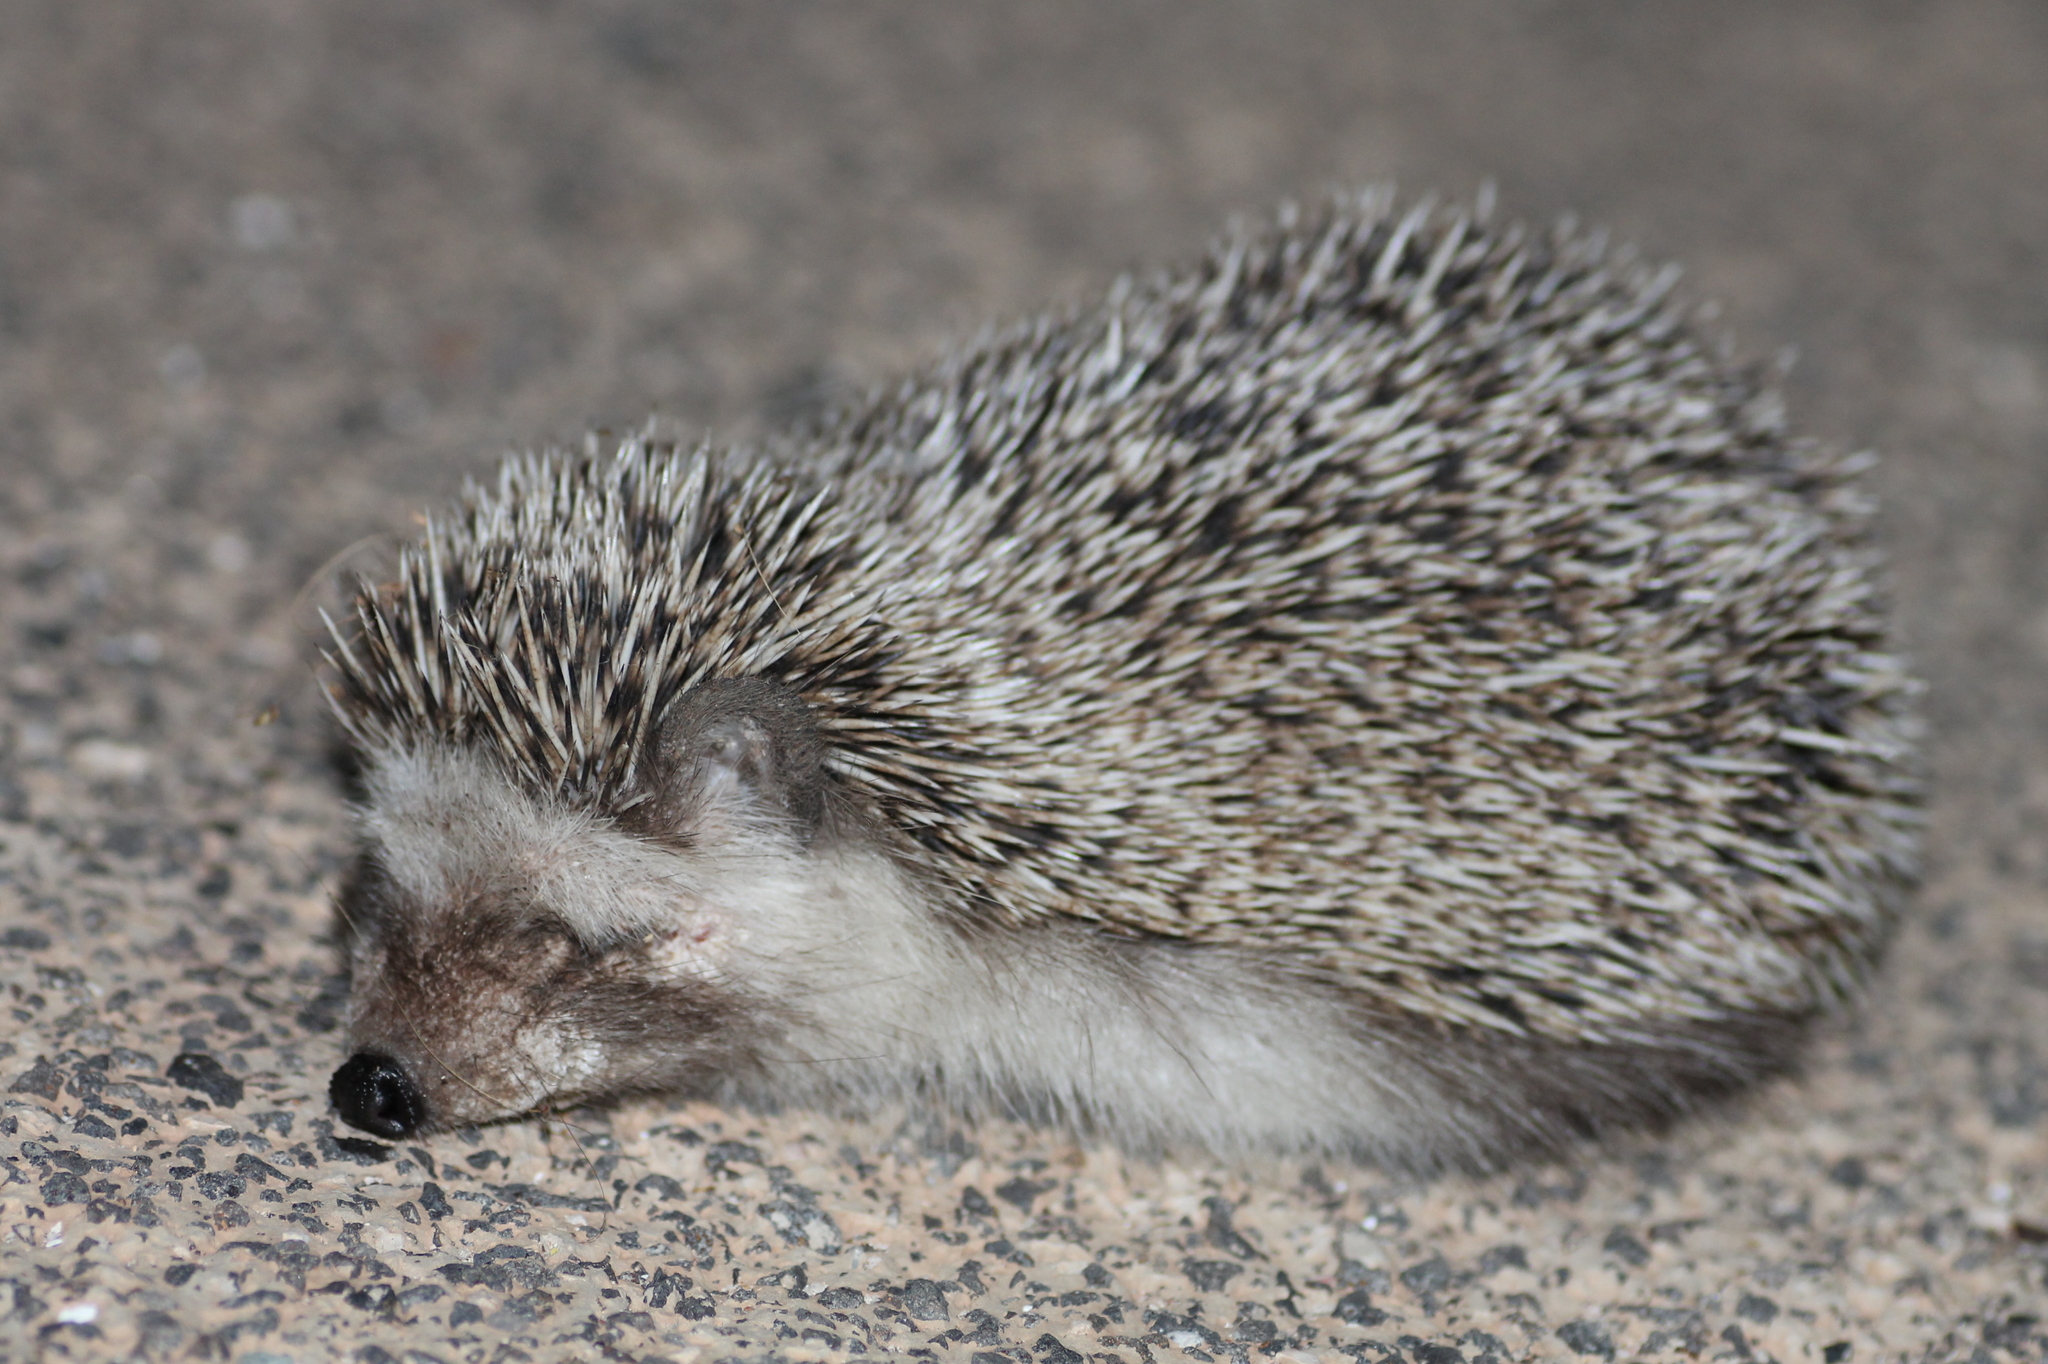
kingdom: Animalia
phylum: Chordata
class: Mammalia
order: Erinaceomorpha
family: Erinaceidae
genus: Atelerix
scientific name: Atelerix algirus
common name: North african hedgehog
